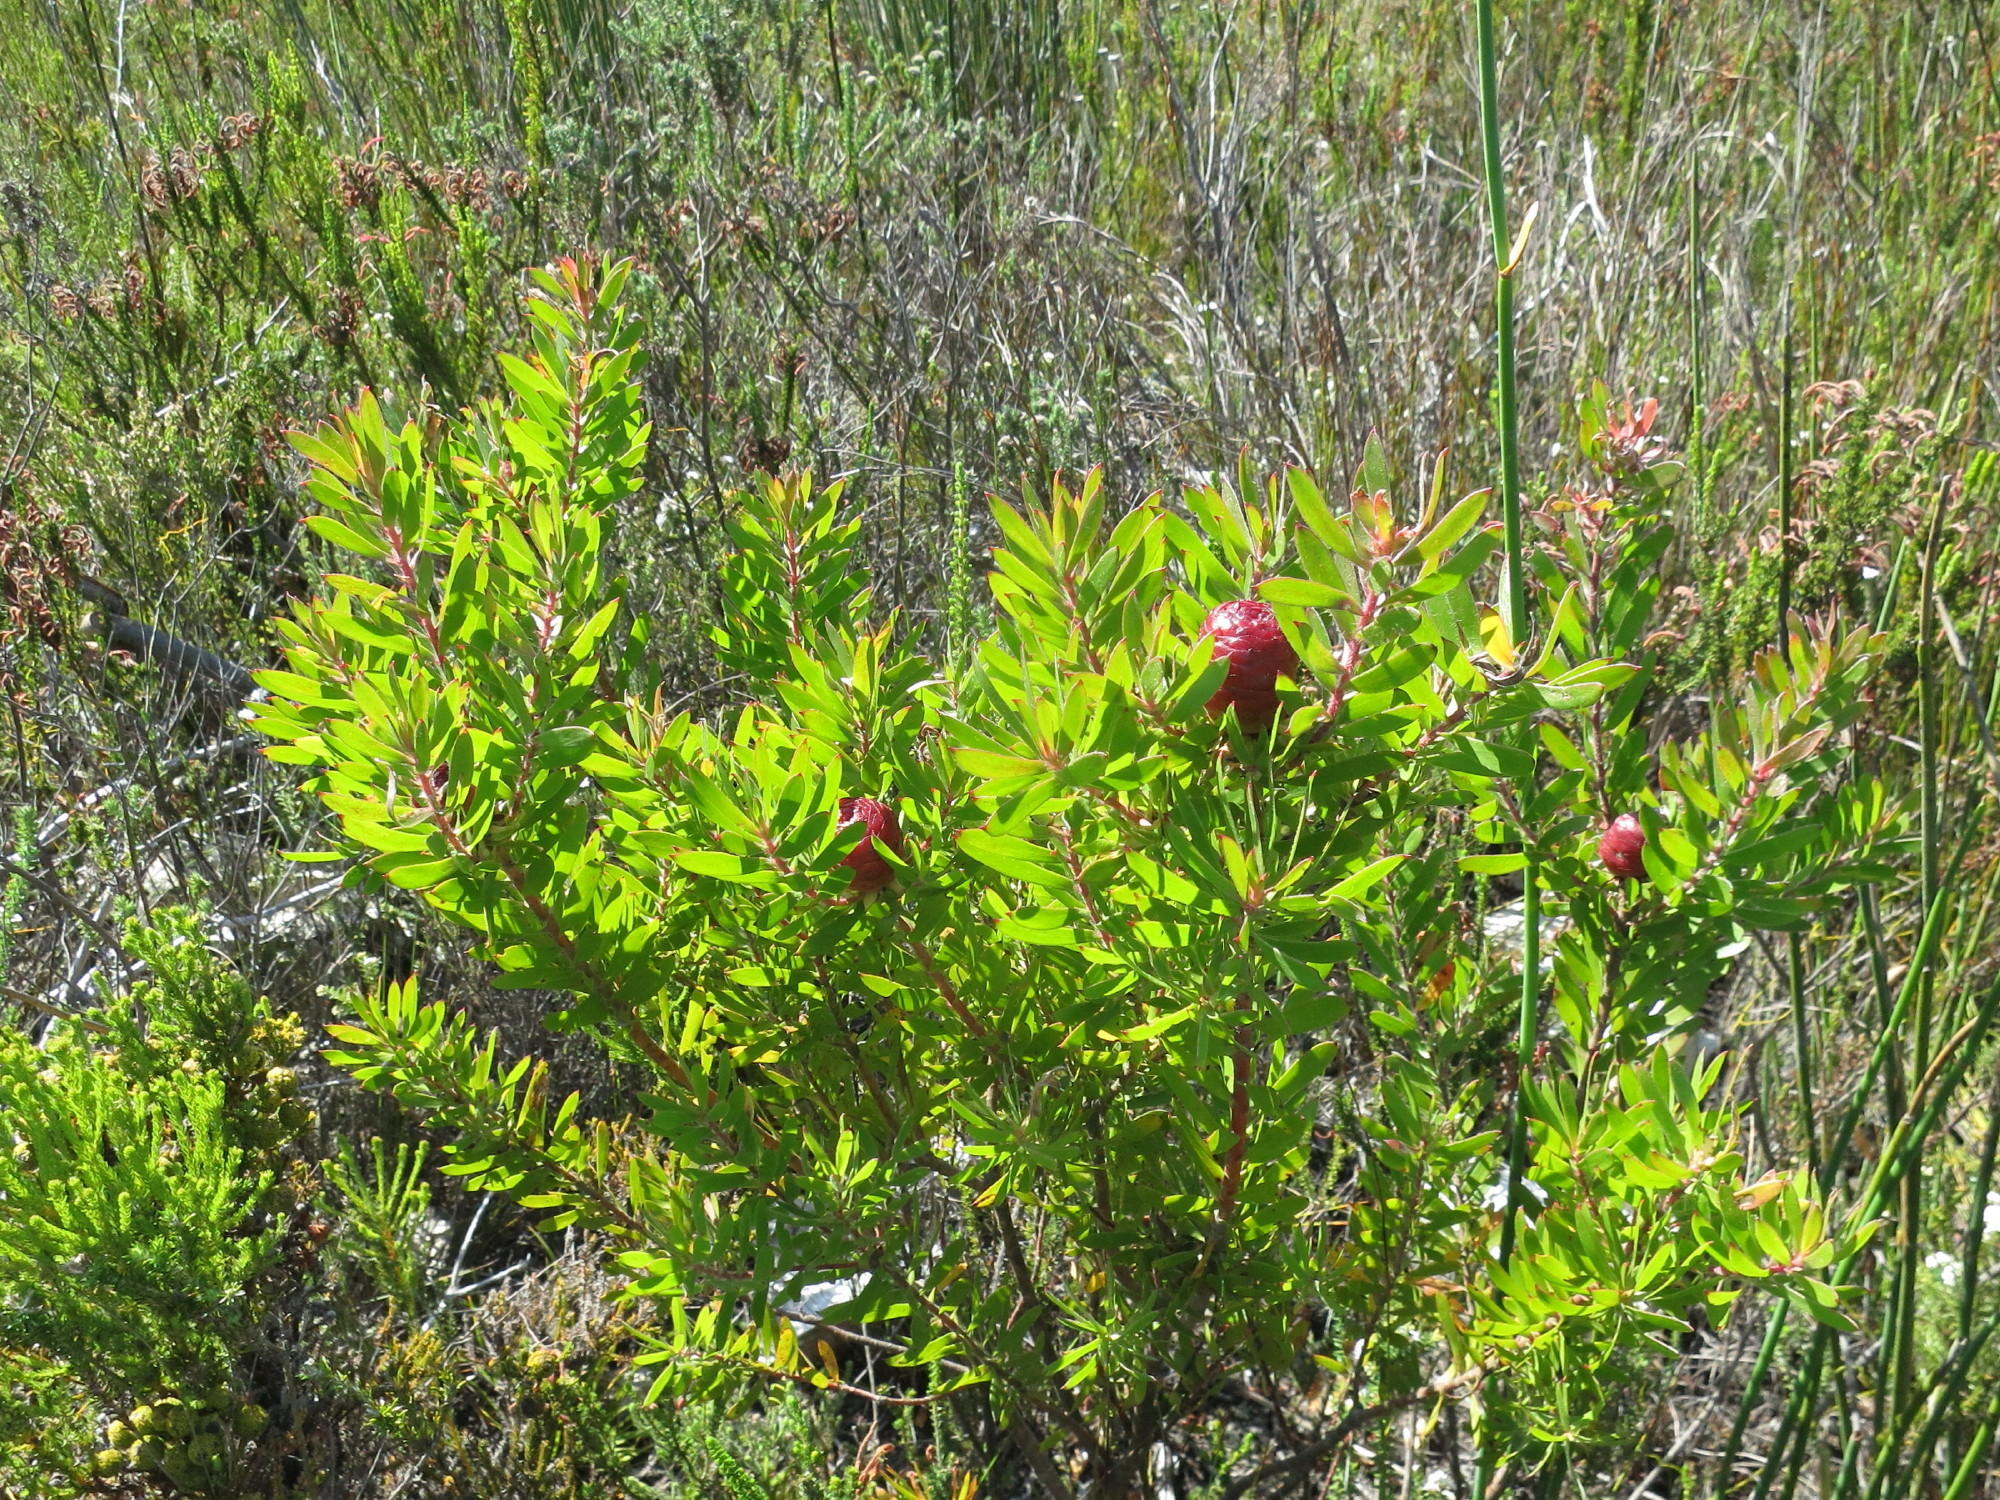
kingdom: Plantae
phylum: Tracheophyta
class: Magnoliopsida
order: Proteales
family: Proteaceae
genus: Leucadendron
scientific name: Leucadendron conicum
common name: Garden route conebush
